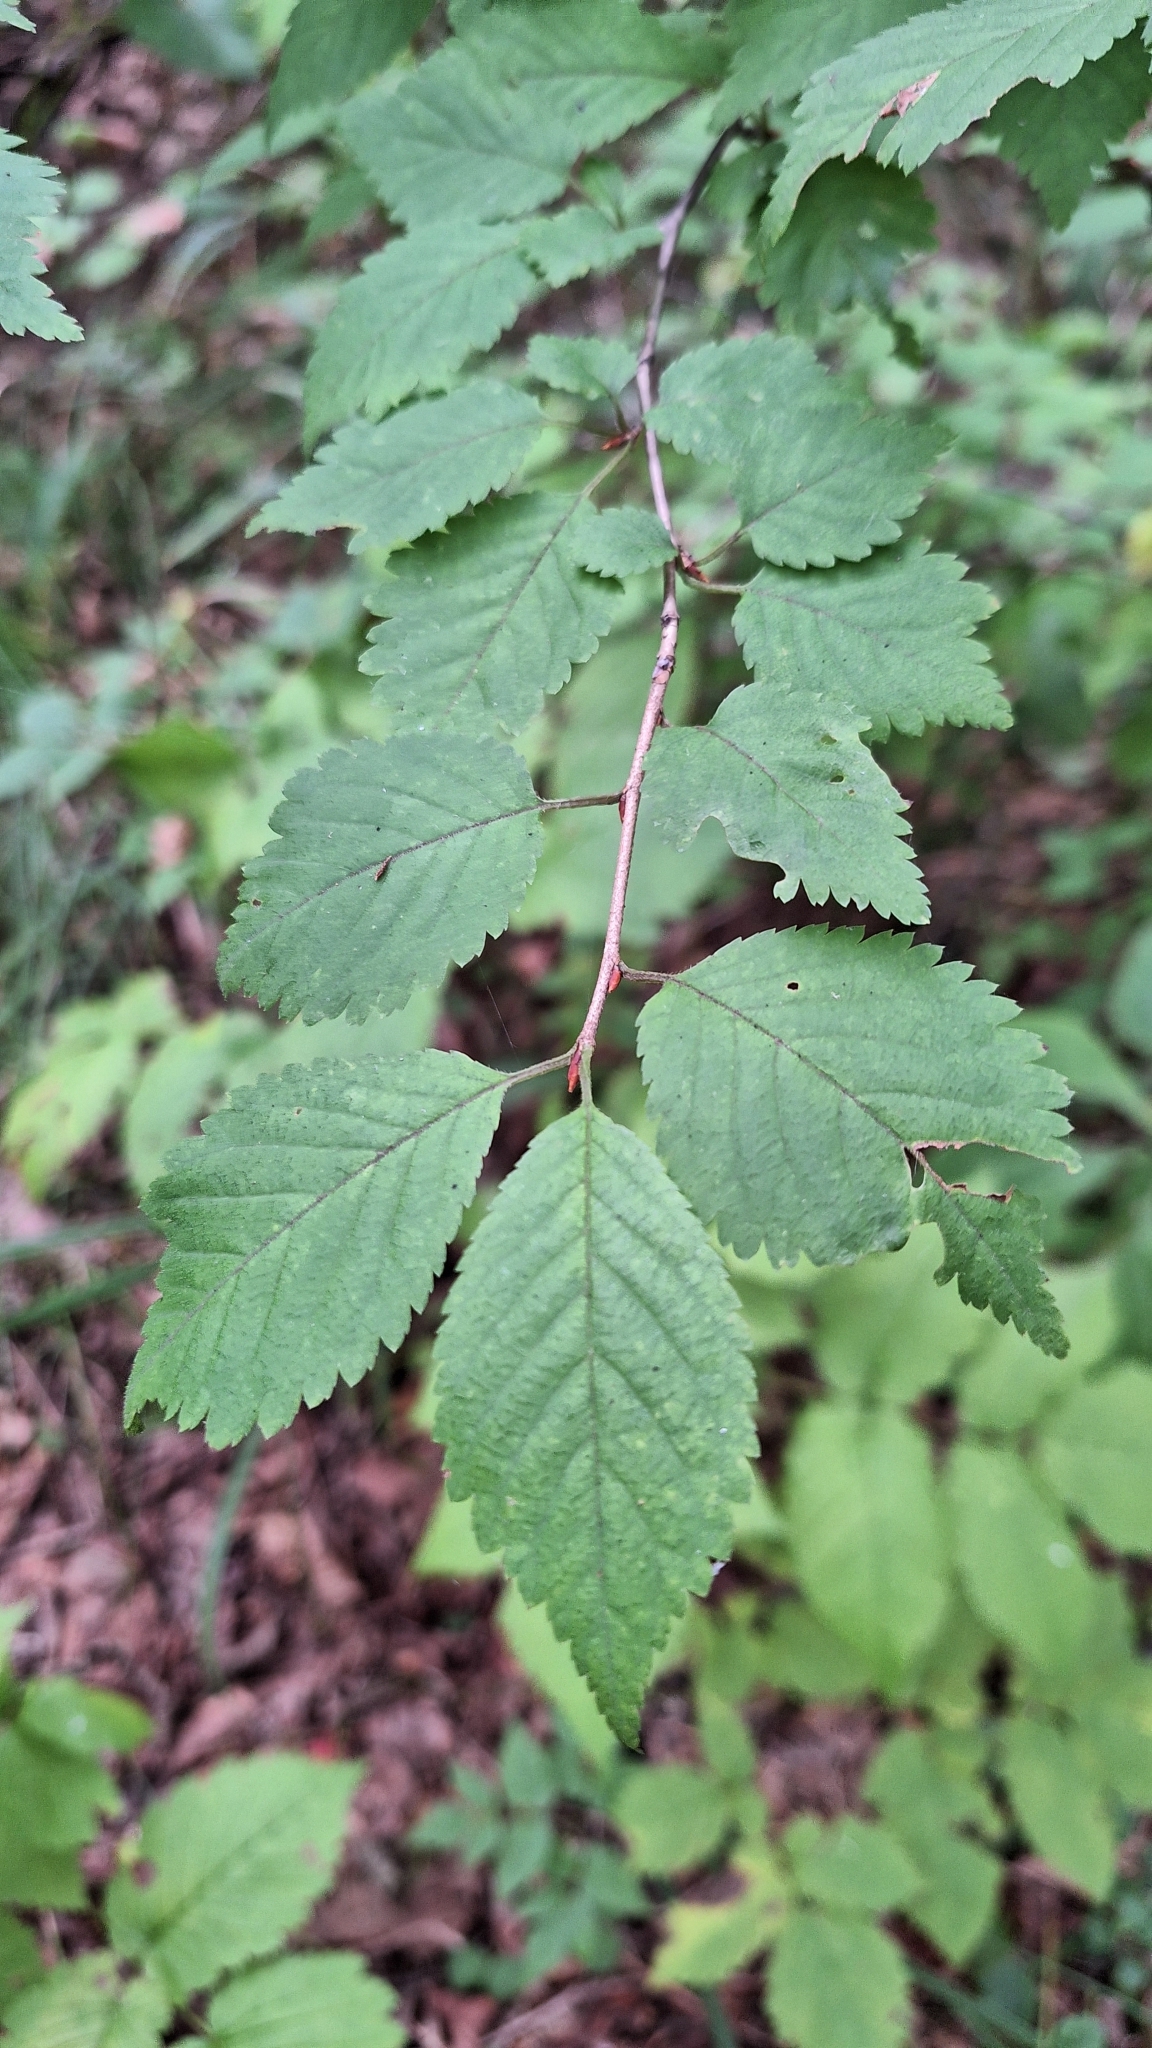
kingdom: Plantae
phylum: Tracheophyta
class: Magnoliopsida
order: Rosales
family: Rosaceae
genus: Prunus
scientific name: Prunus maximowiczii
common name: Korean cherry
